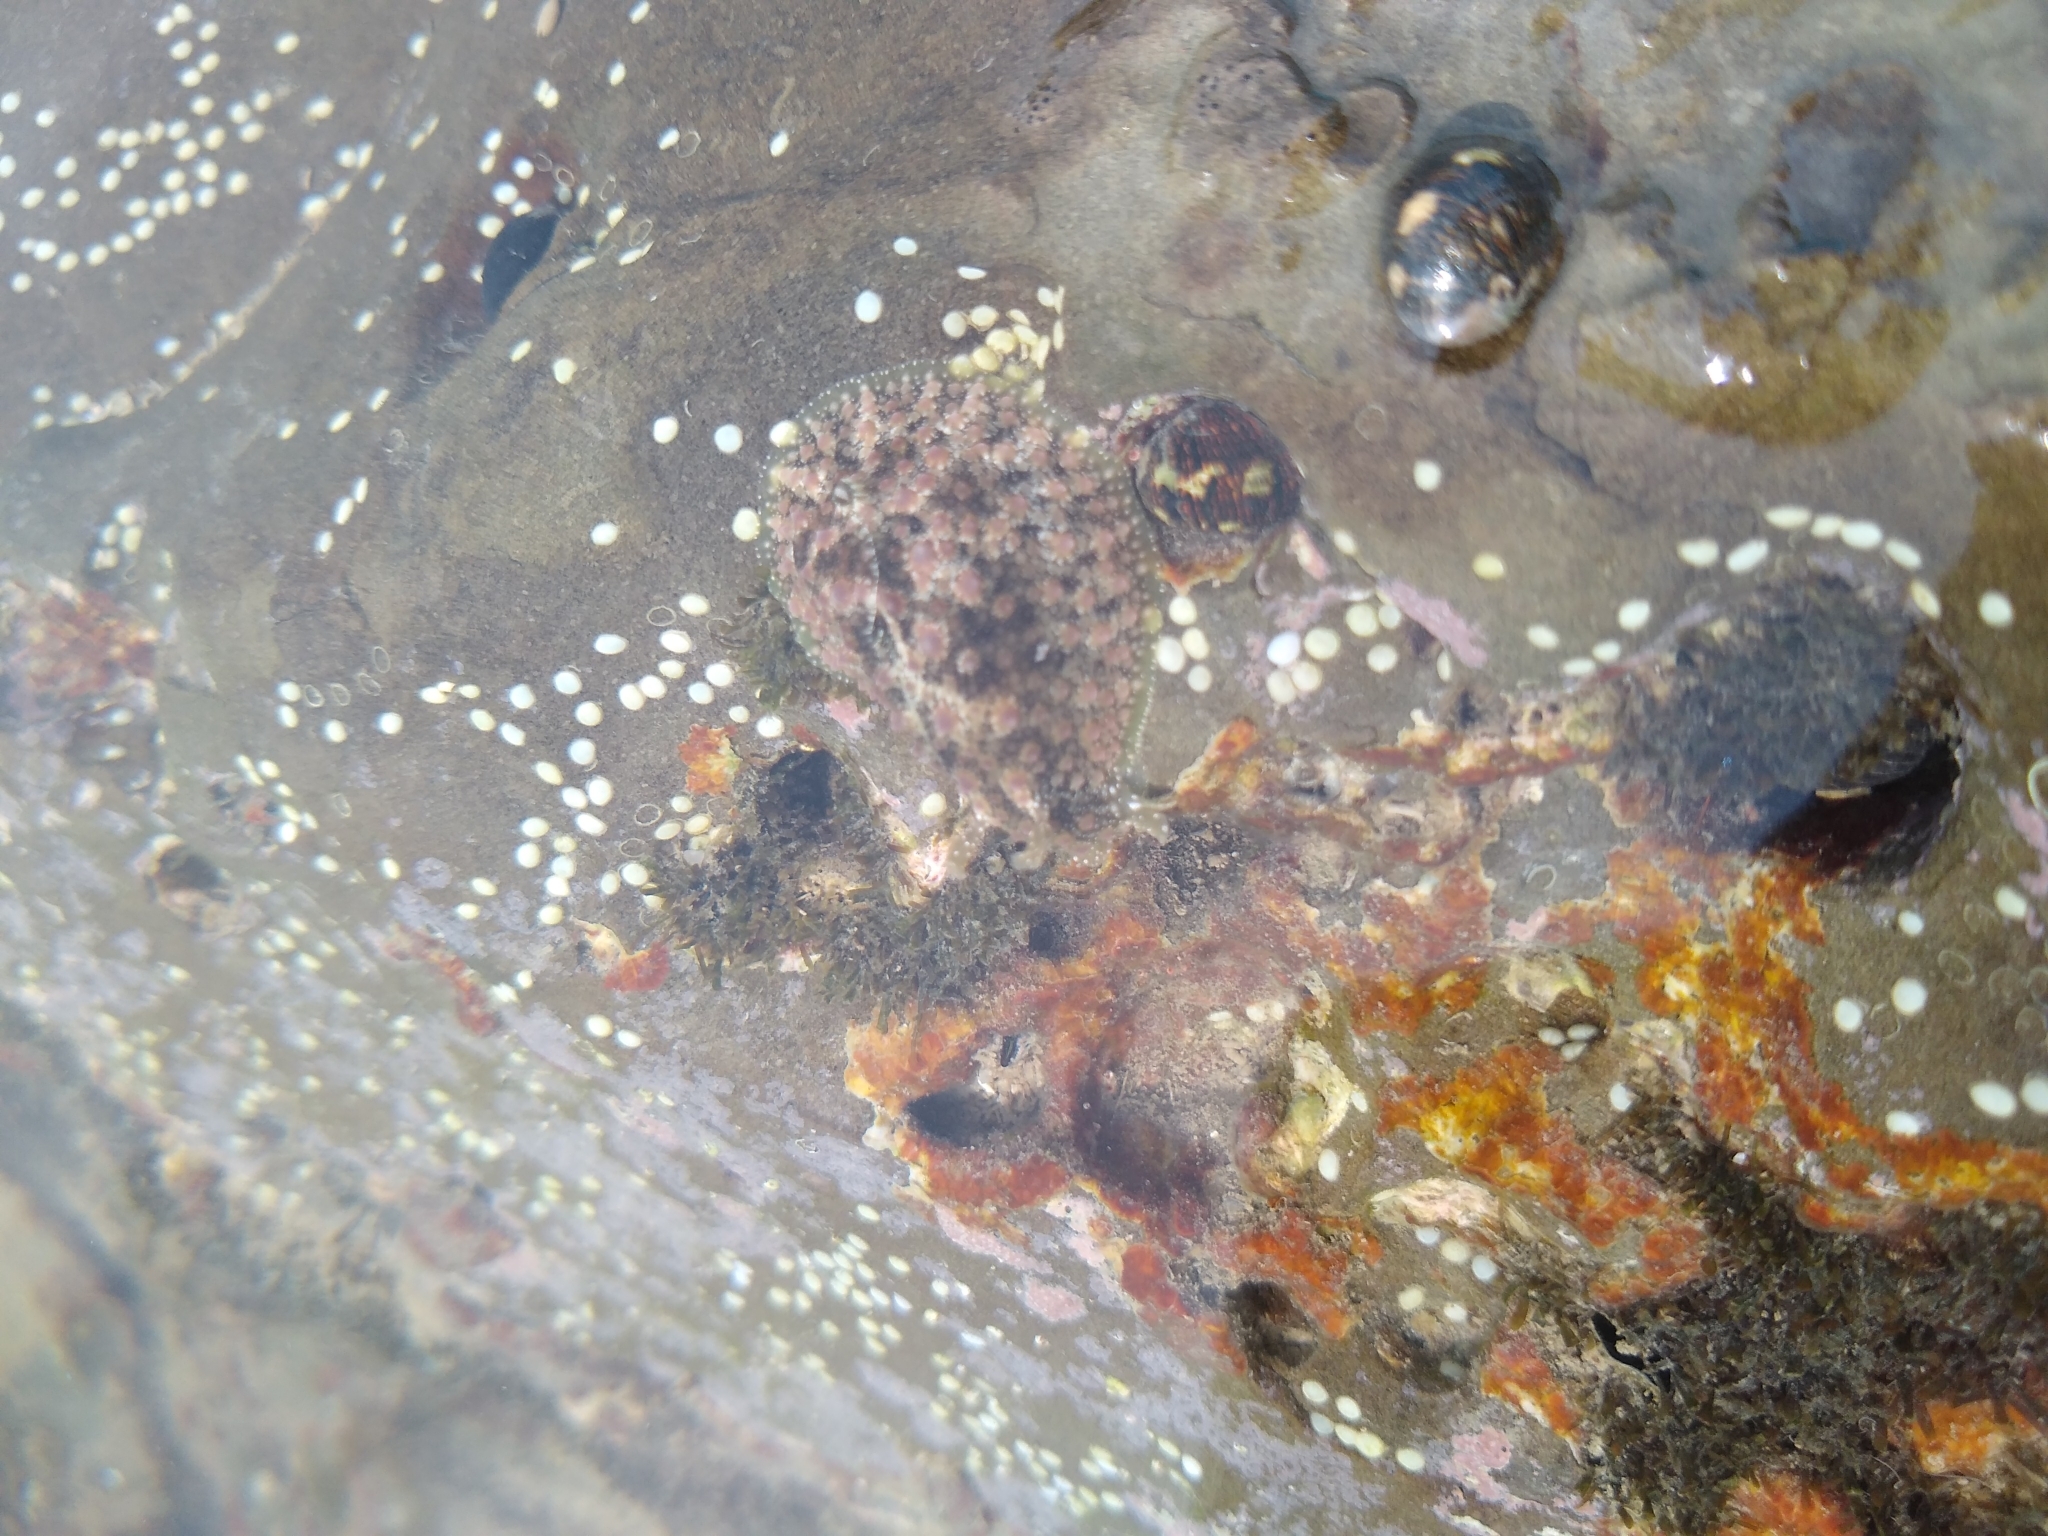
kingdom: Animalia
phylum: Mollusca
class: Gastropoda
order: Aplysiida
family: Aplysiidae
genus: Dolabrifera
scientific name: Dolabrifera nicaraguana
